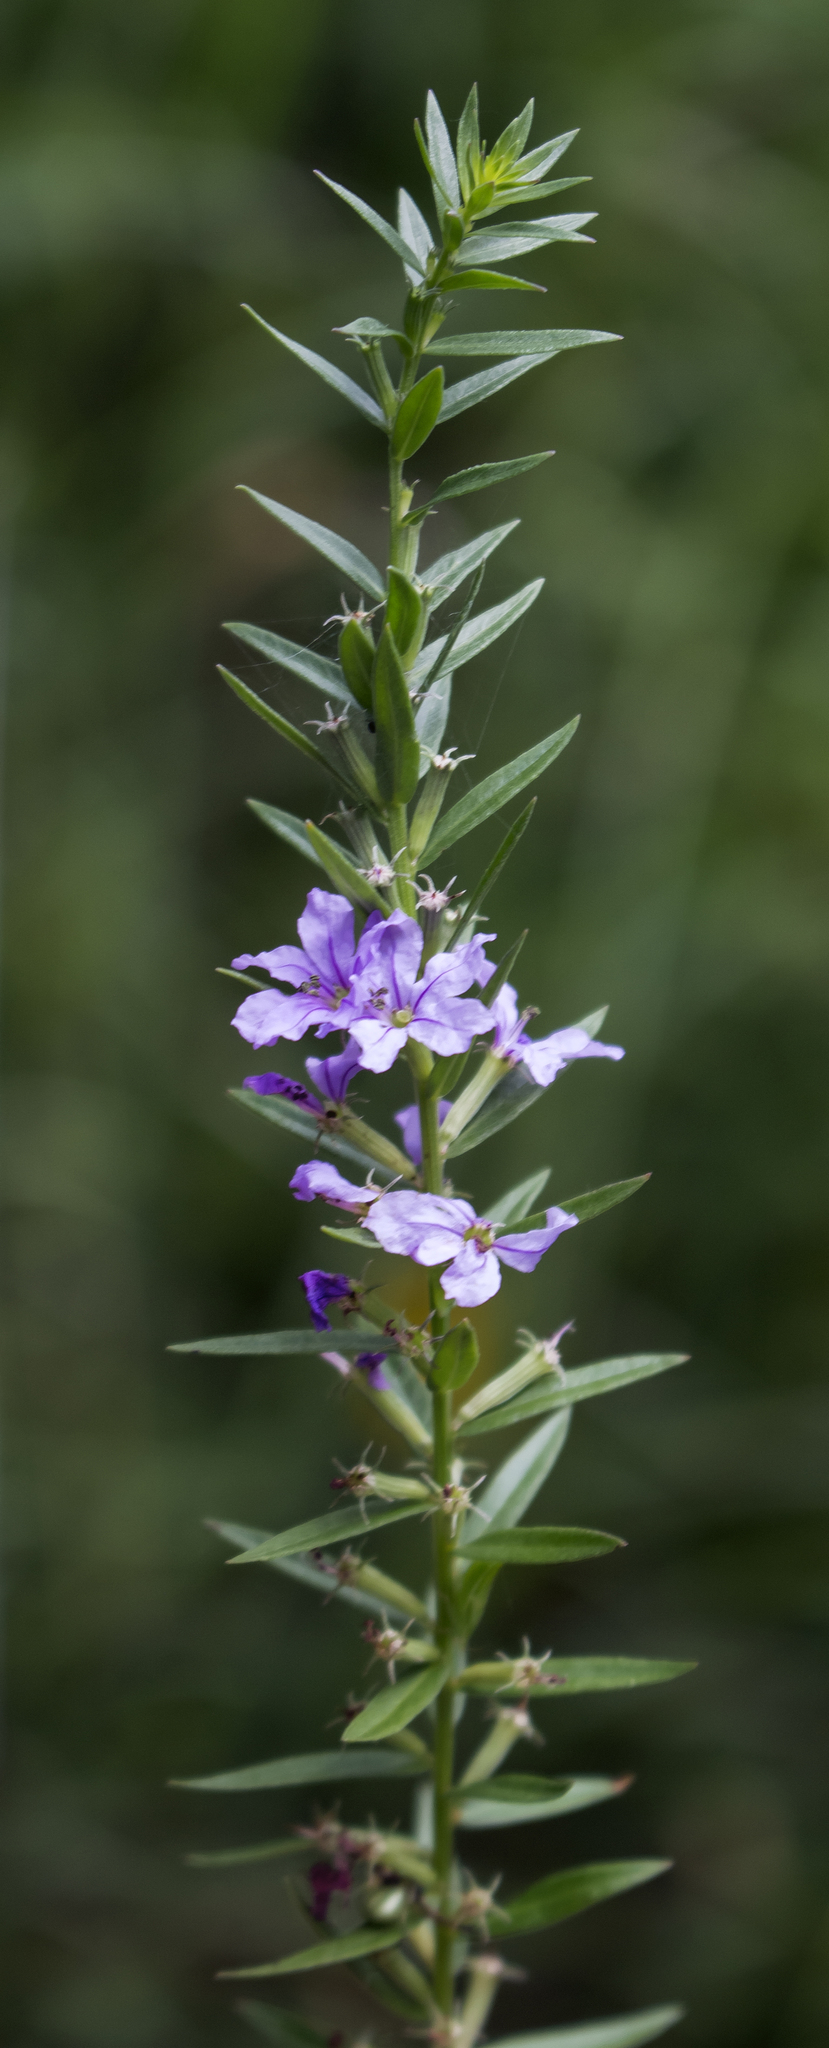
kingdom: Plantae
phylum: Tracheophyta
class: Magnoliopsida
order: Myrtales
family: Lythraceae
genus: Lythrum
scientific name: Lythrum alatum
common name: Winged loosestrife
